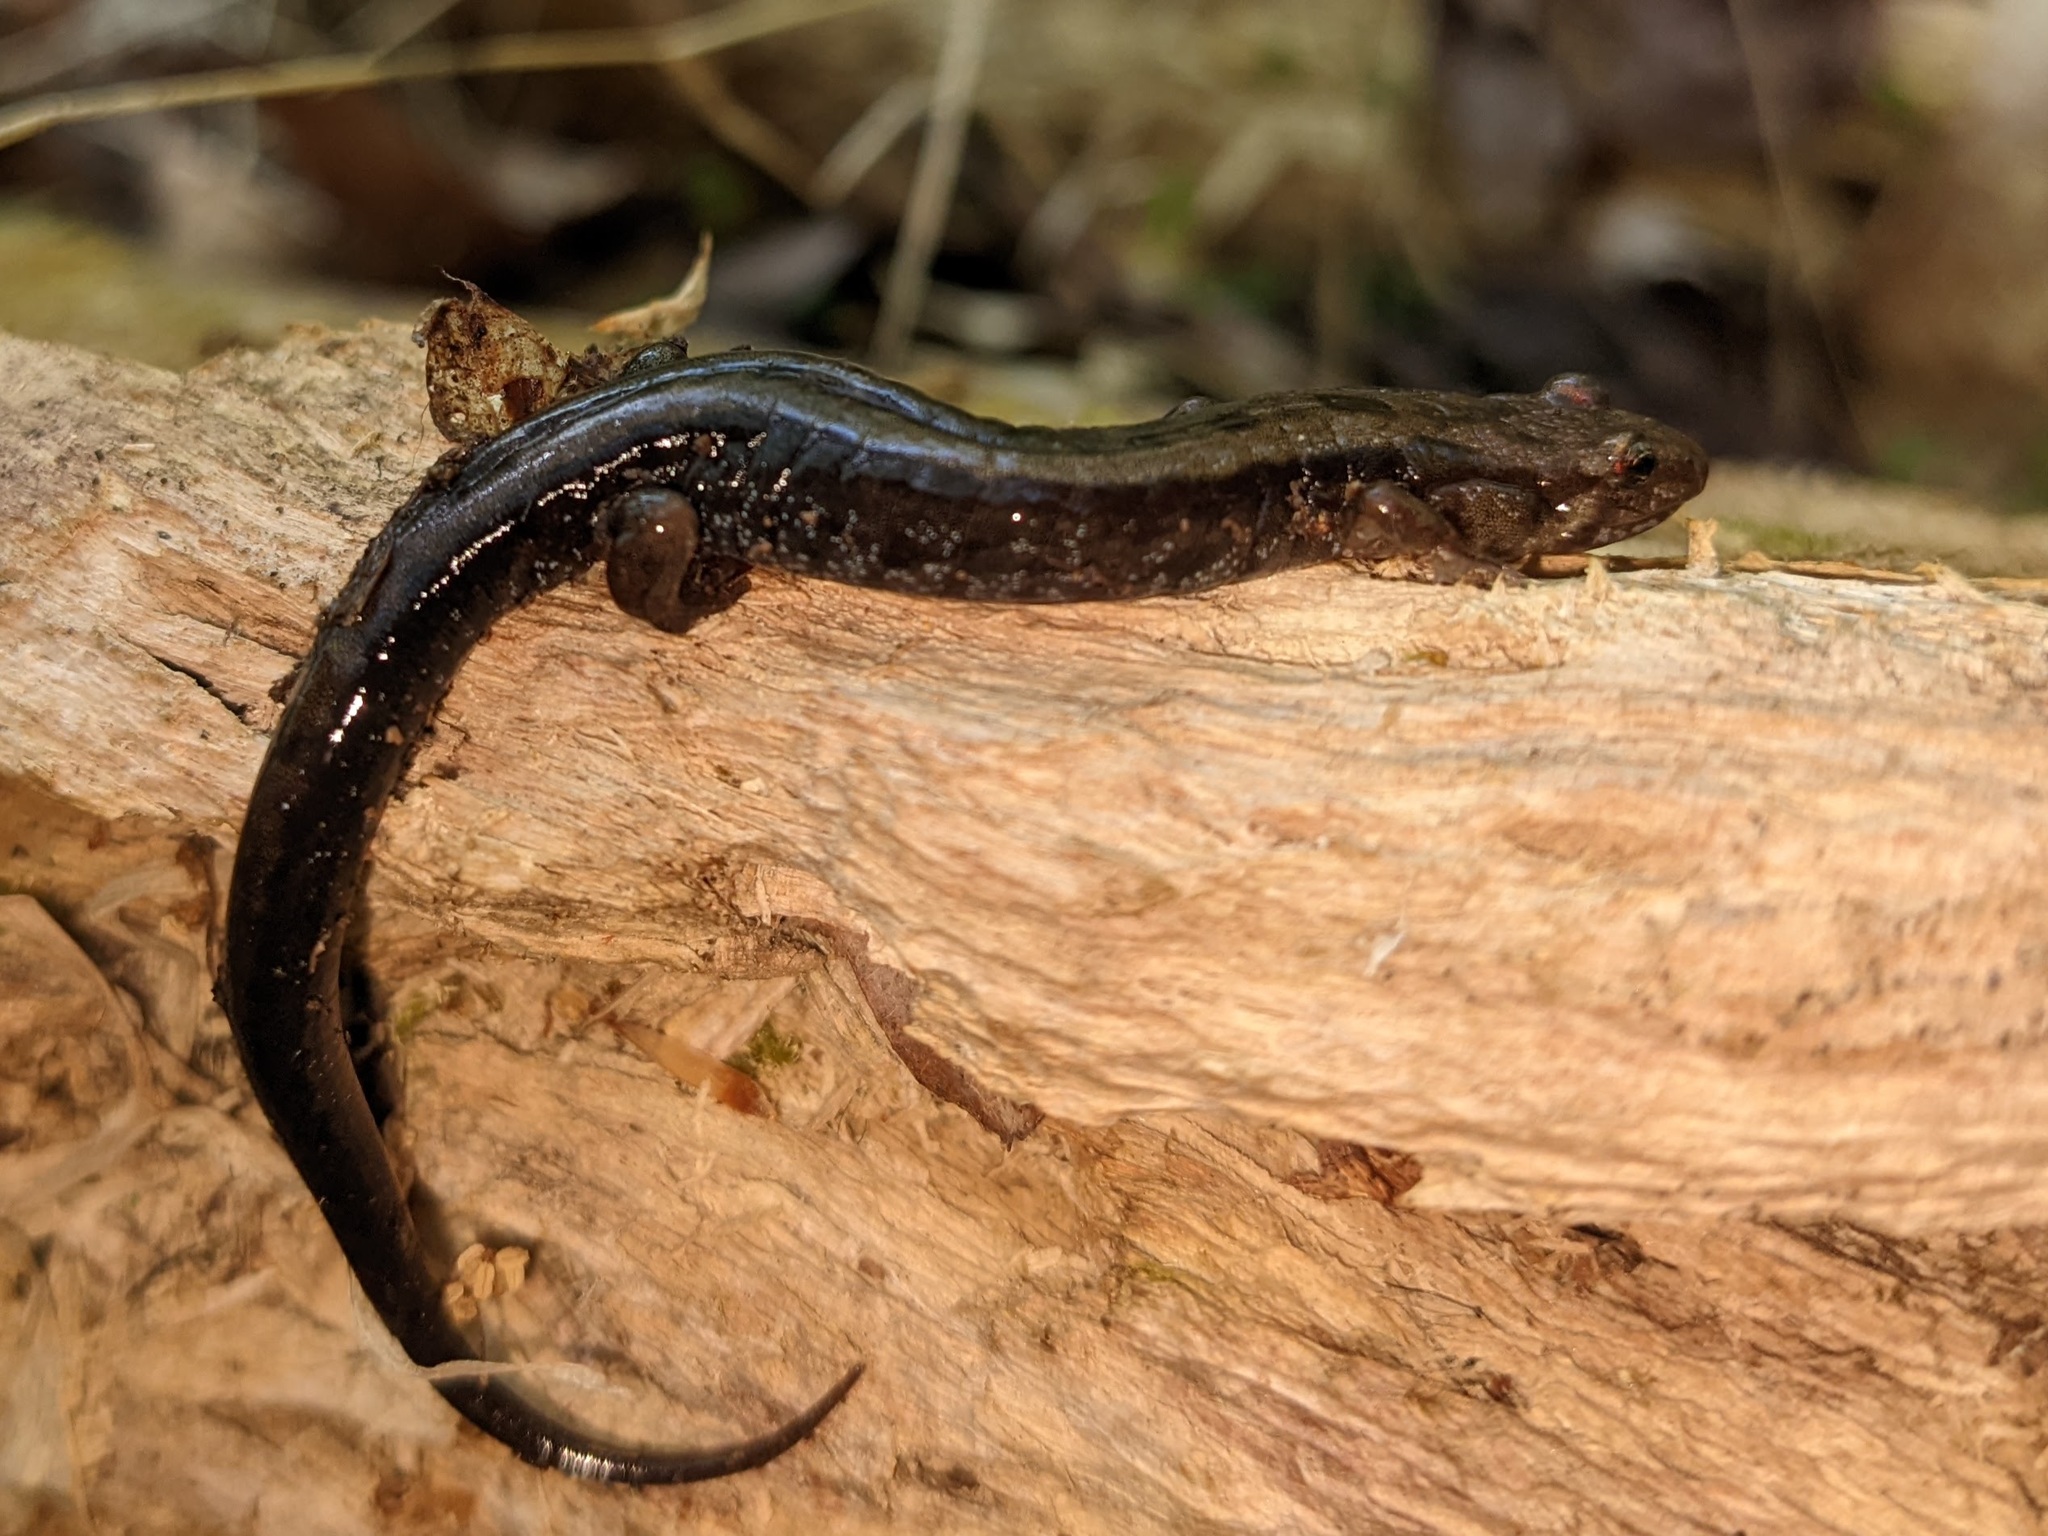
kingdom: Animalia
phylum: Chordata
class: Amphibia
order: Caudata
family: Plethodontidae
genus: Desmognathus
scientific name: Desmognathus ochrophaeus
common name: Allegheny mountain dusky salamander
